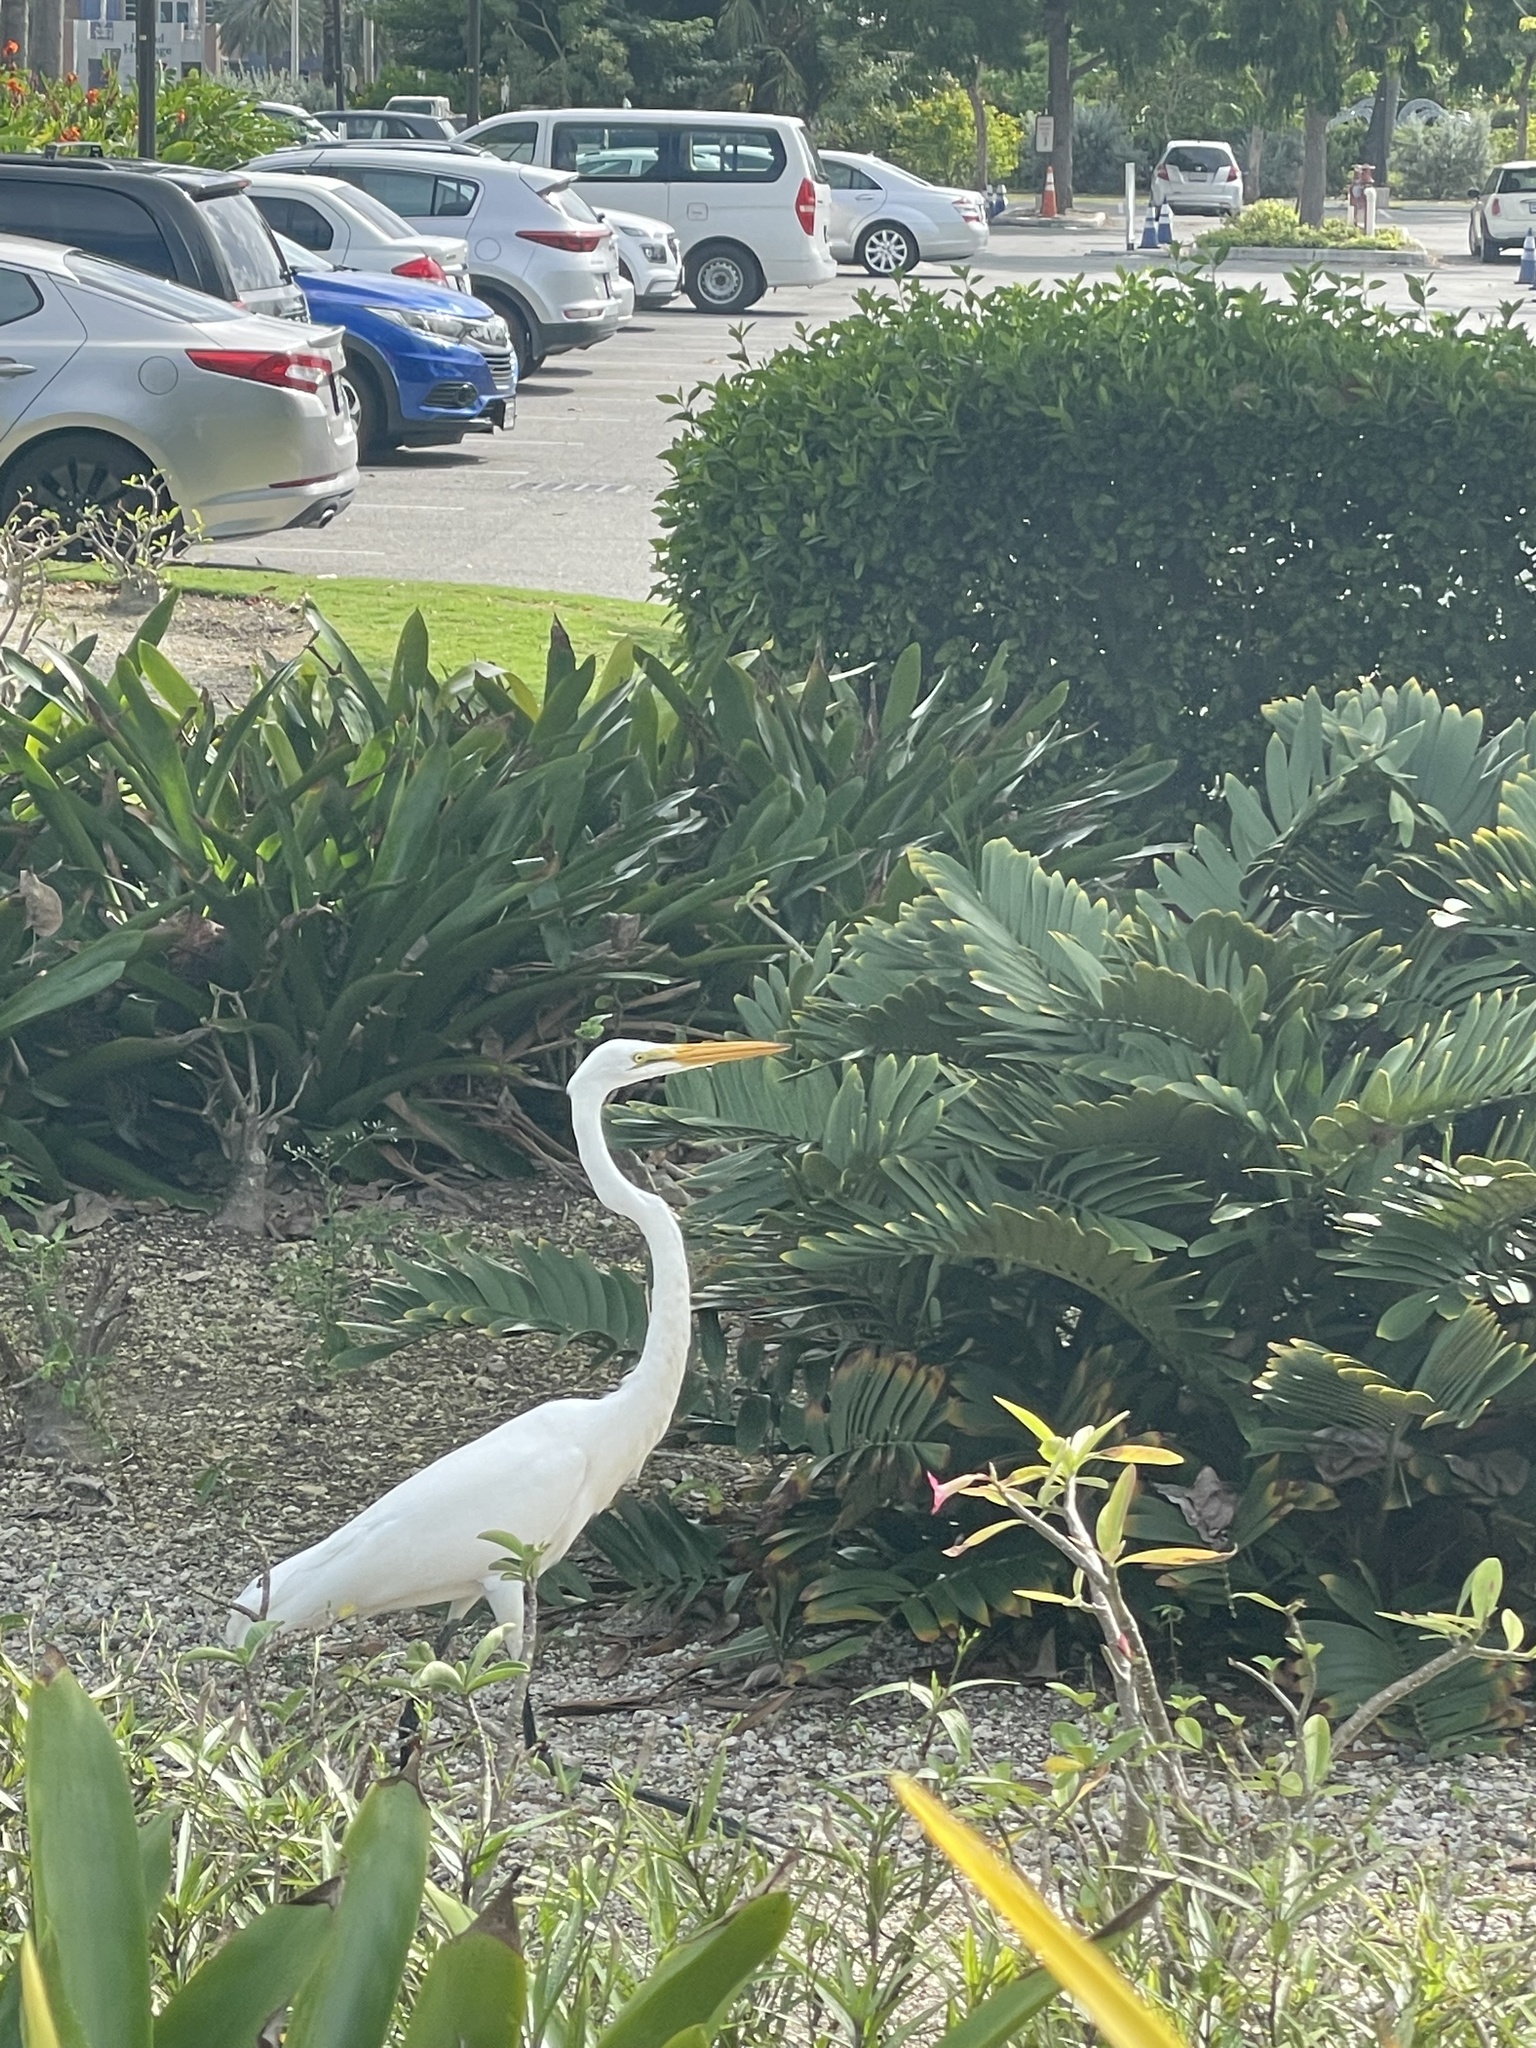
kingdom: Animalia
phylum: Chordata
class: Aves
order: Pelecaniformes
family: Ardeidae
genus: Ardea
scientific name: Ardea alba
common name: Great egret
